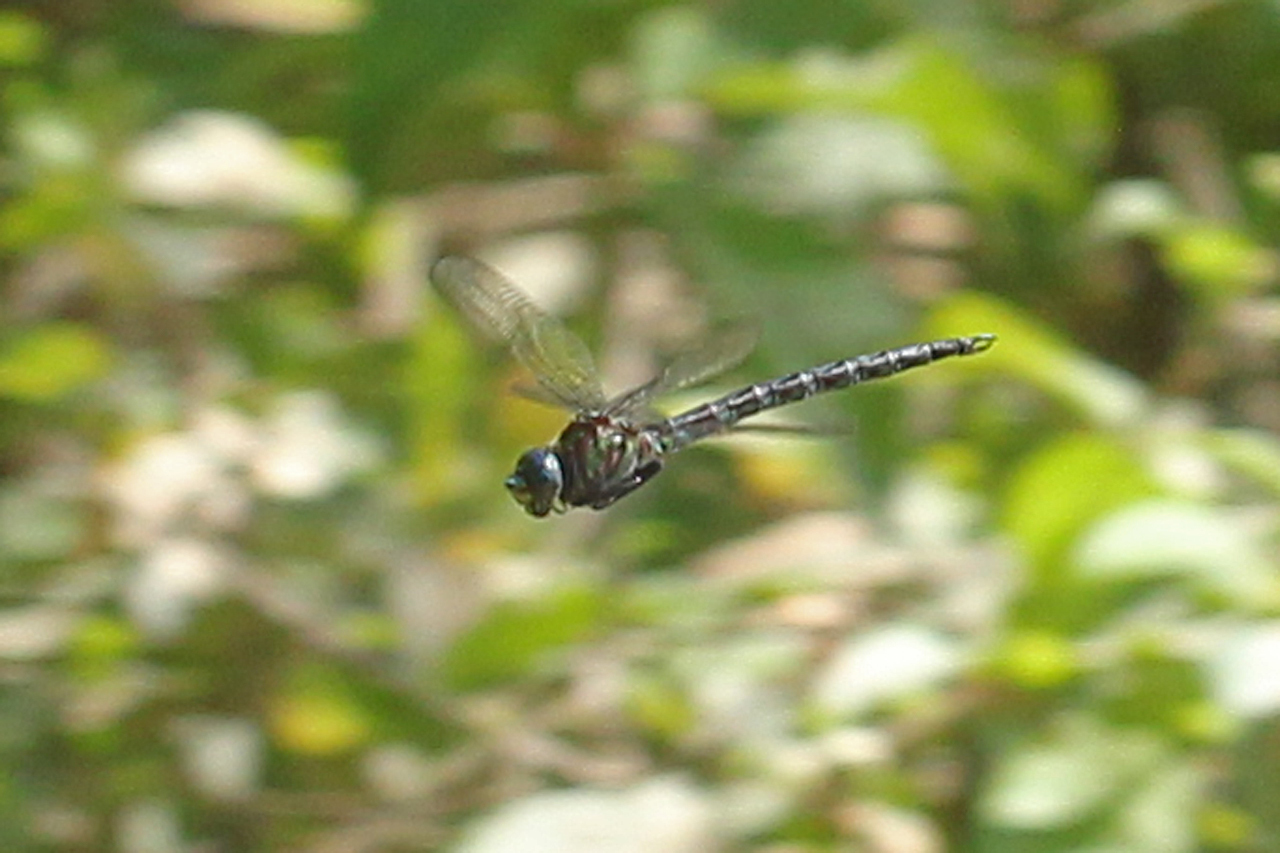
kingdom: Animalia
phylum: Arthropoda
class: Insecta
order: Odonata
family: Aeshnidae
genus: Nasiaeschna
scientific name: Nasiaeschna pentacantha
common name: Cyrano darner
